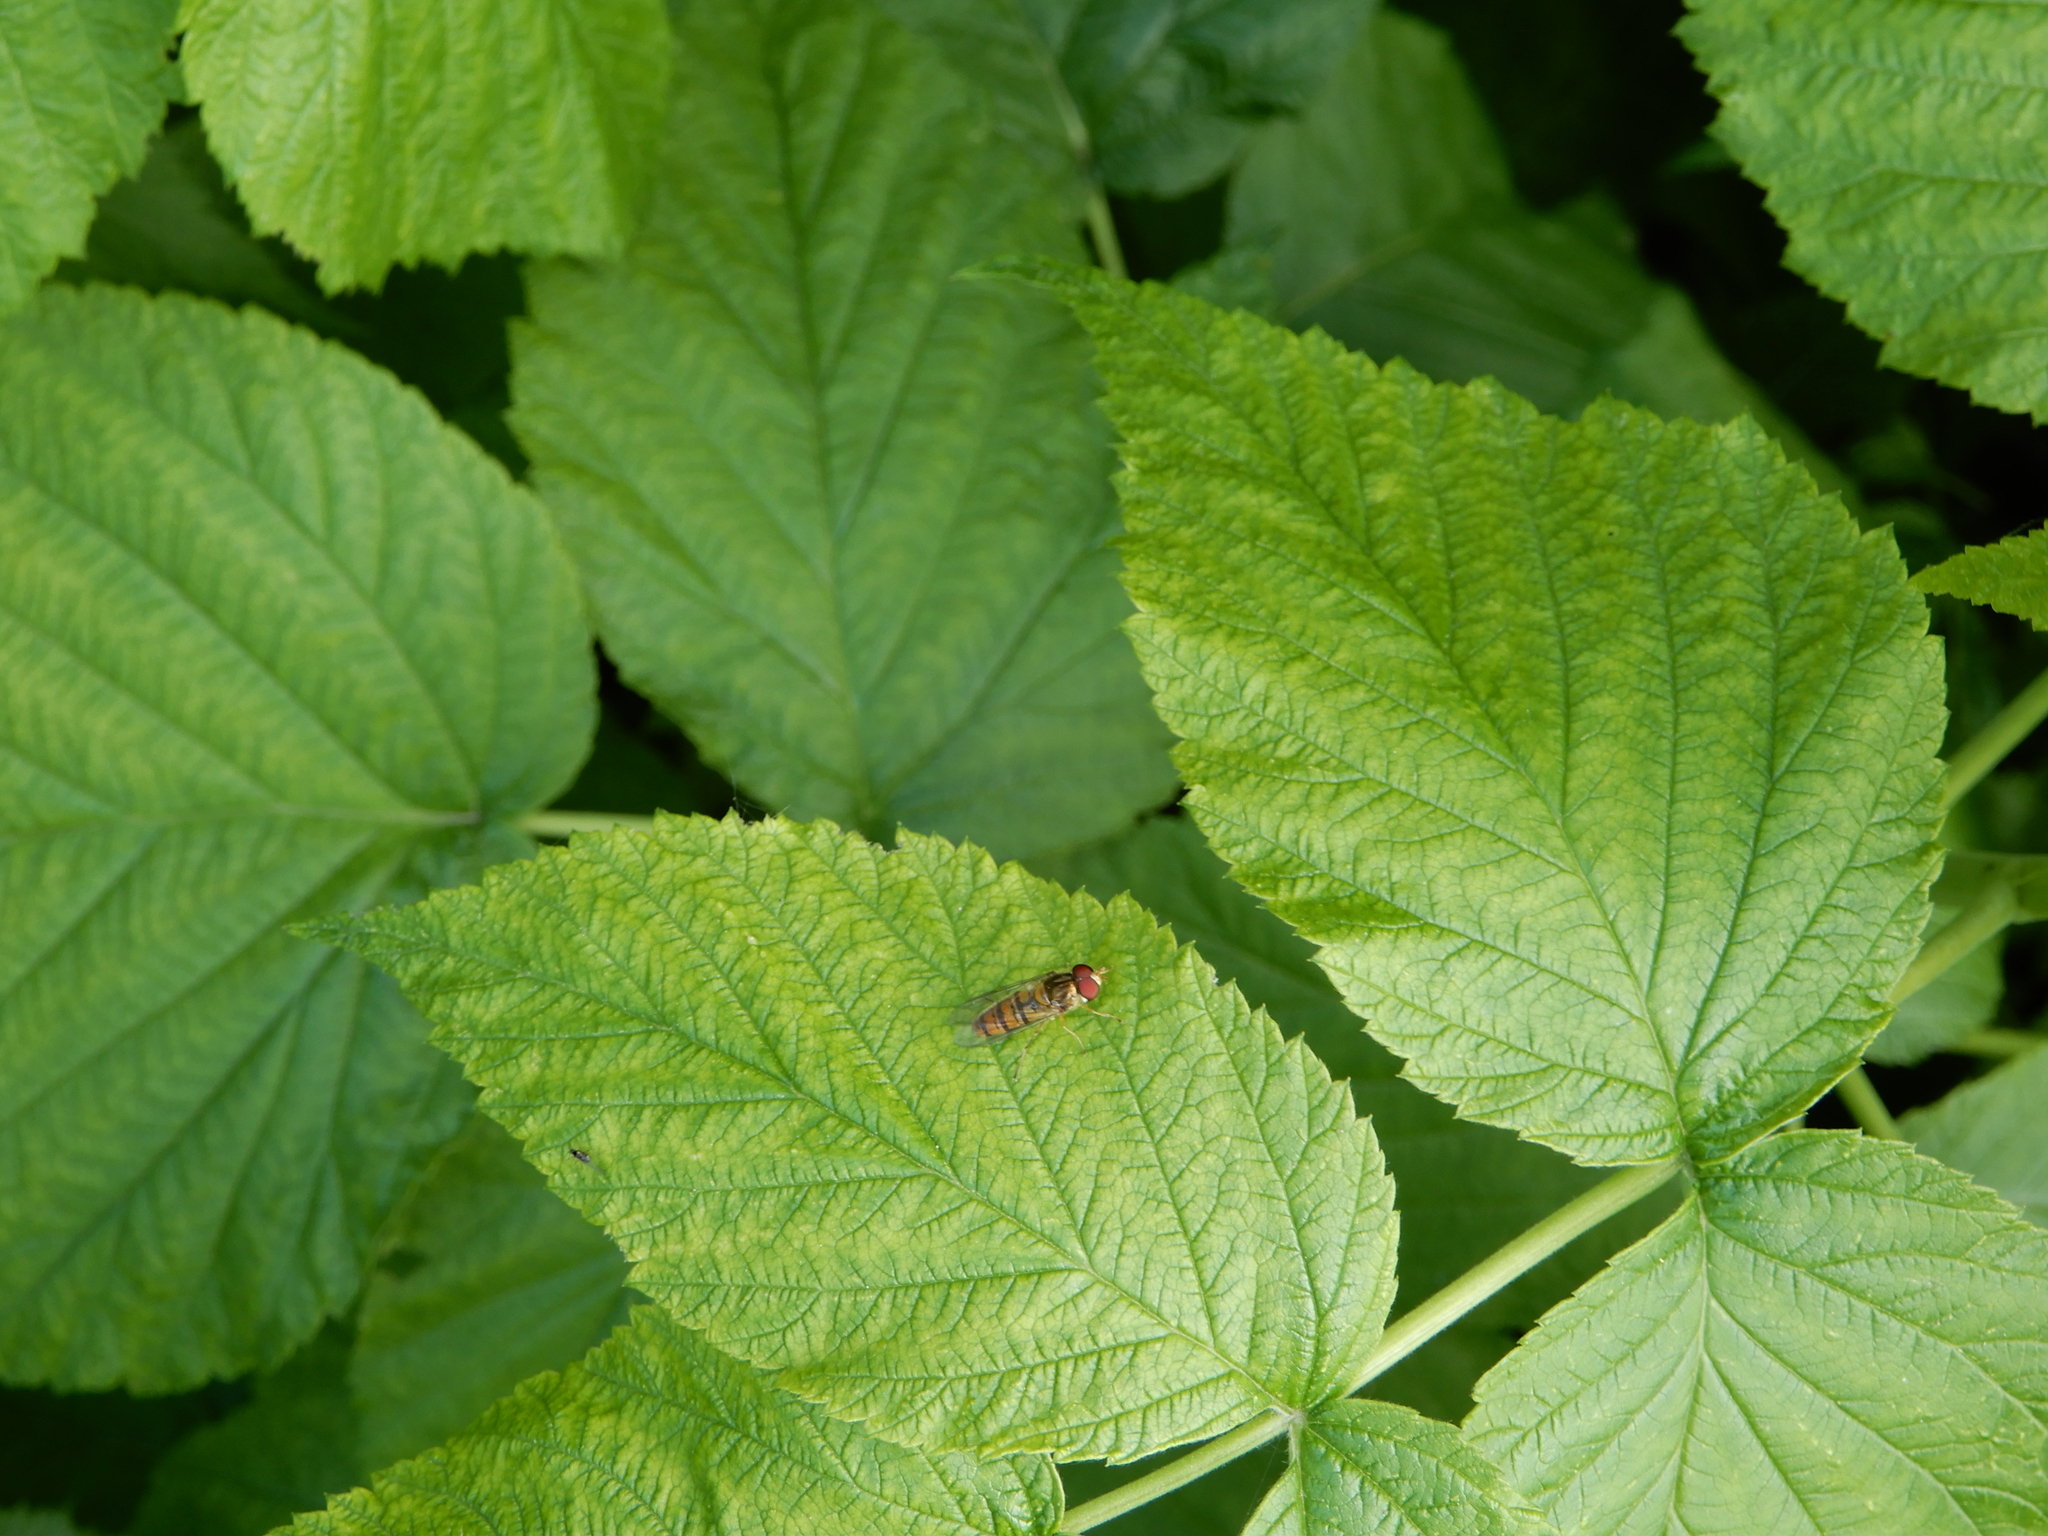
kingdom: Animalia
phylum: Arthropoda
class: Insecta
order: Diptera
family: Syrphidae
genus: Episyrphus
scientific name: Episyrphus balteatus
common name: Marmalade hoverfly
